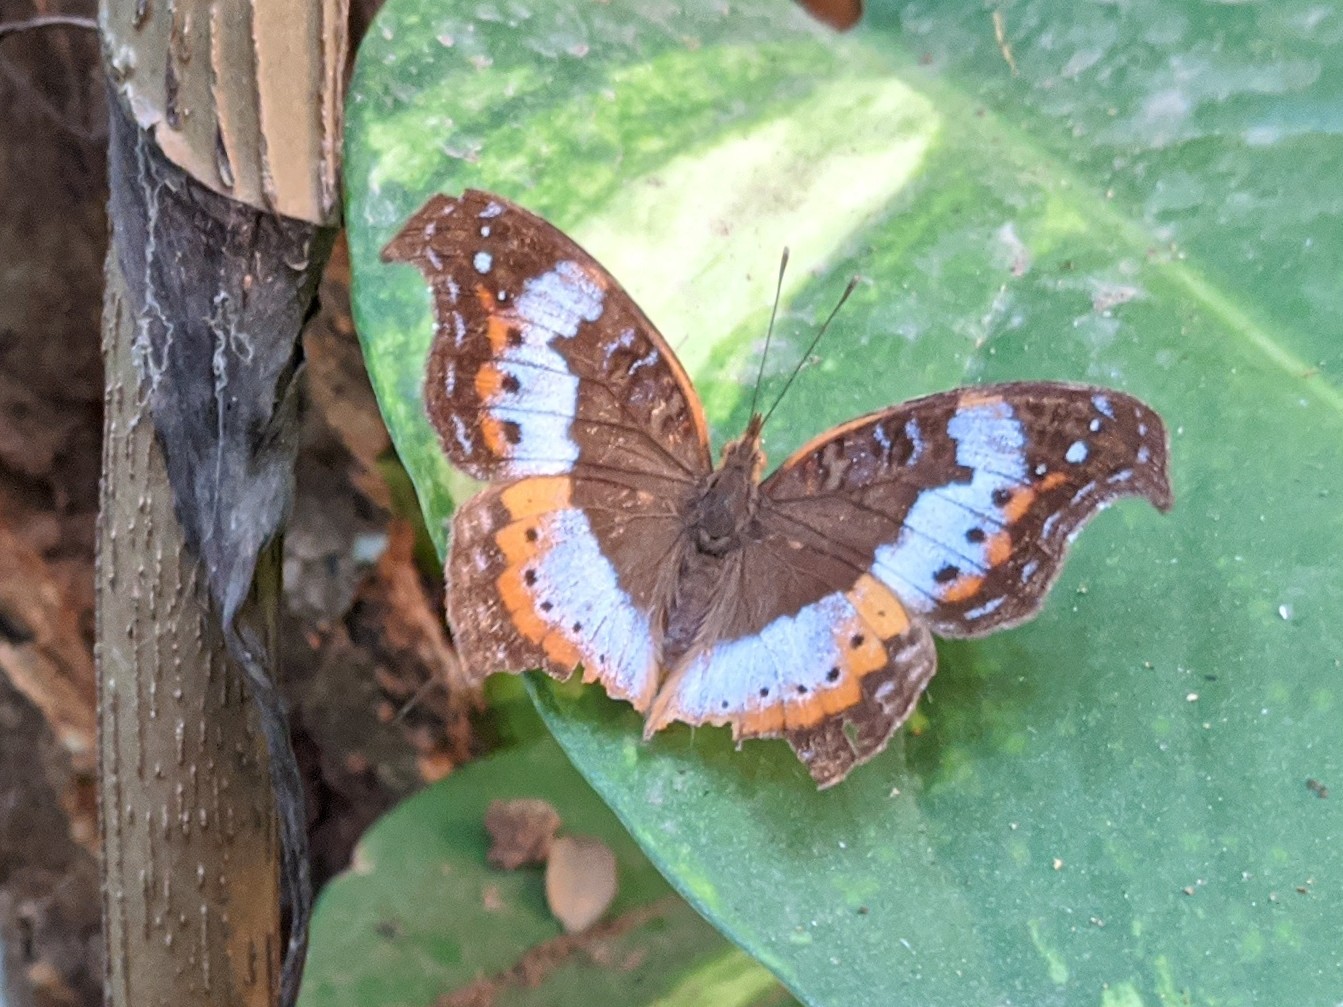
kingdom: Animalia
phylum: Arthropoda
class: Insecta
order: Lepidoptera
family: Nymphalidae
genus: Precis
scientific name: Precis pelarga
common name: Fashion commodore
